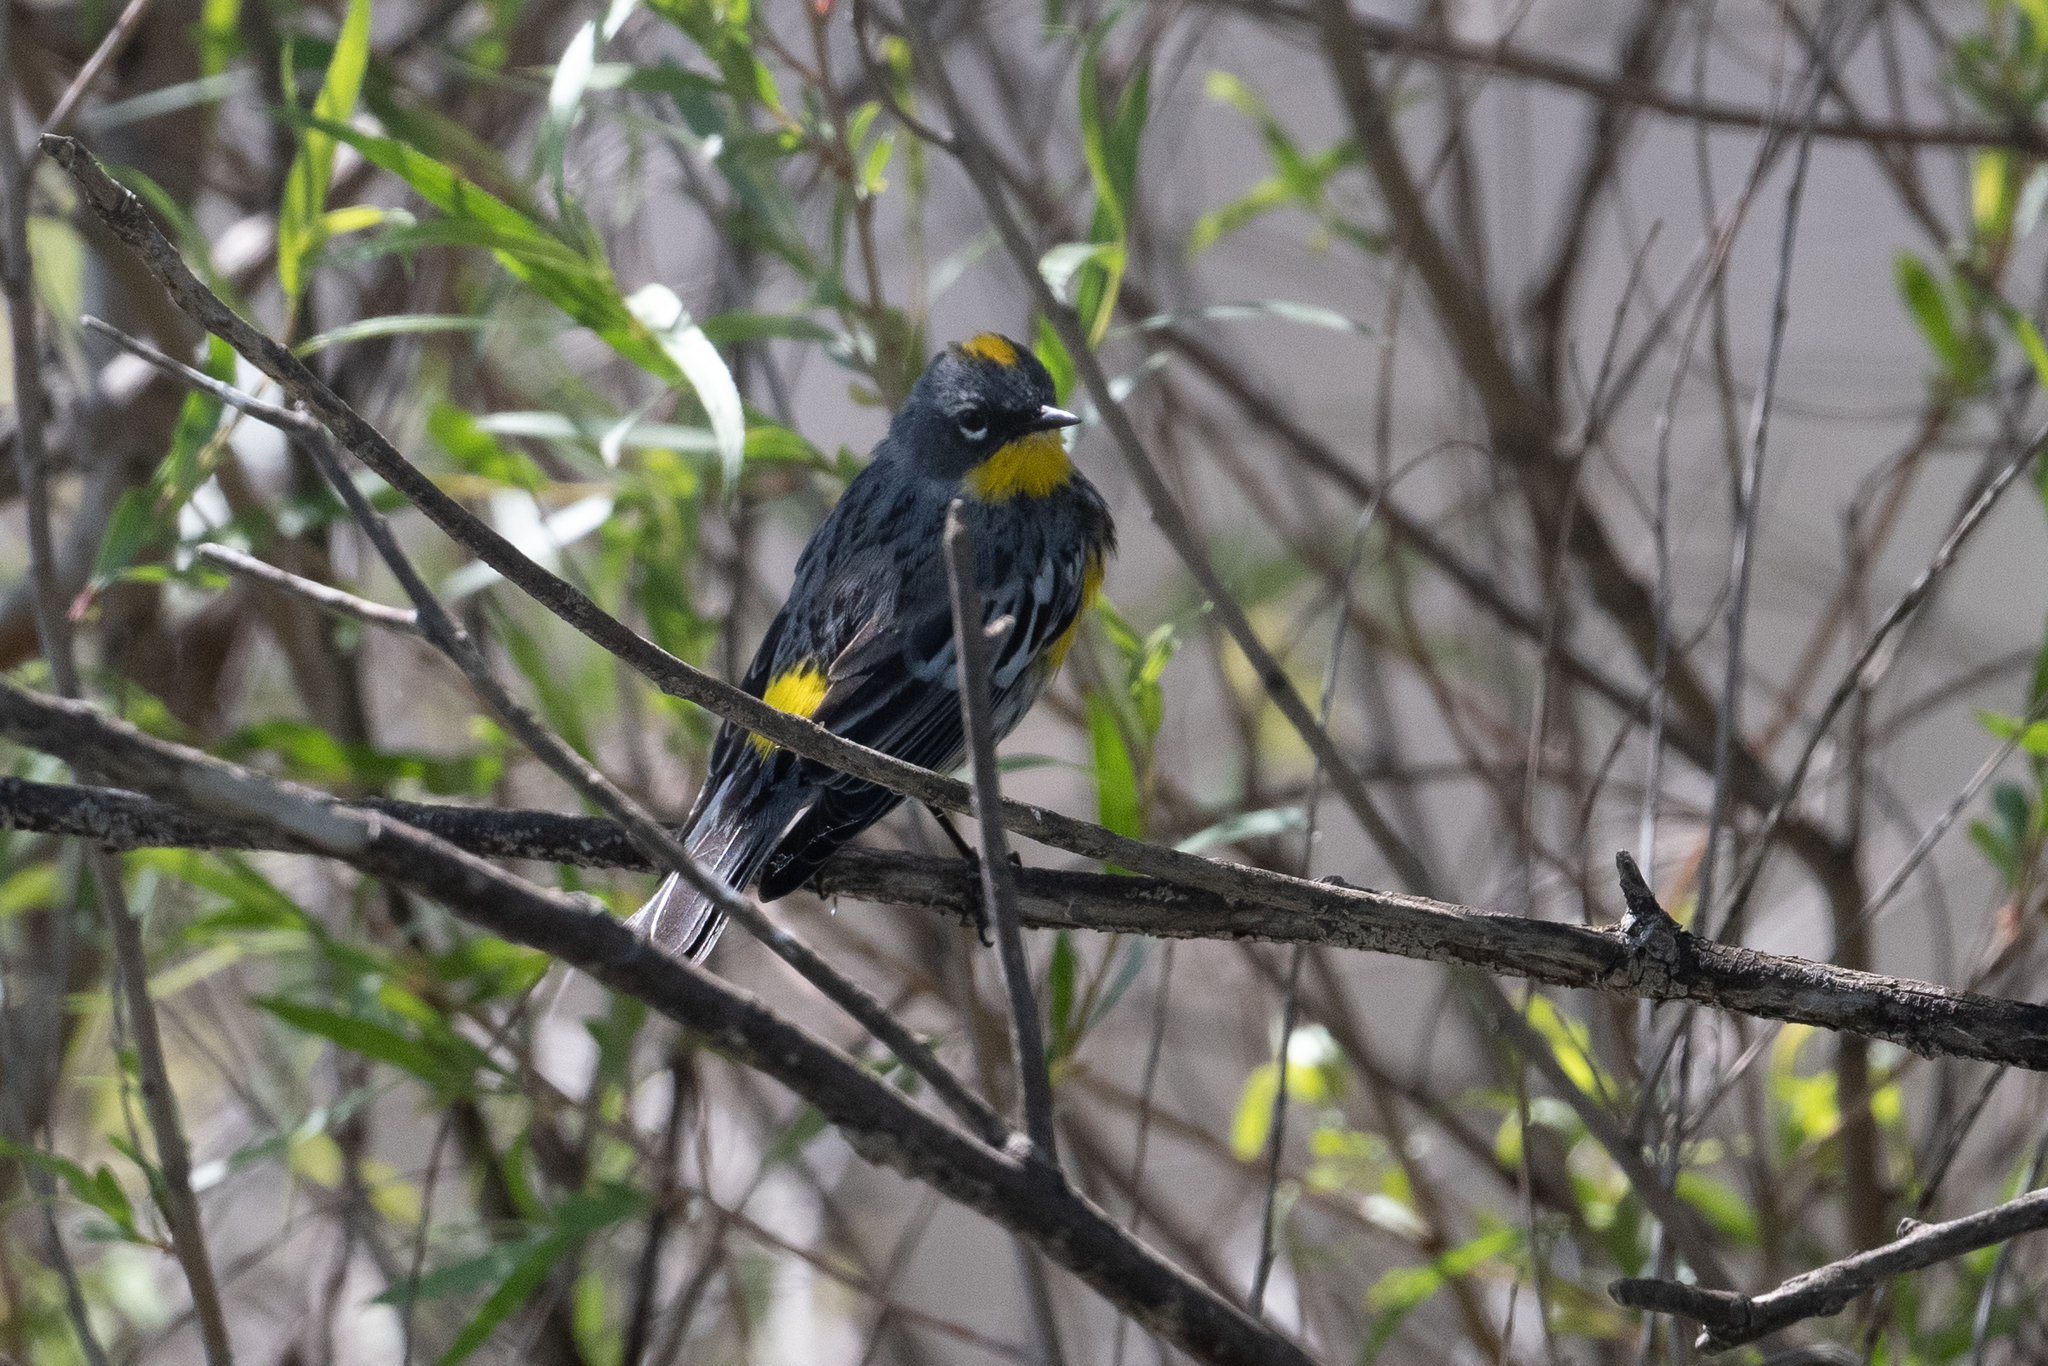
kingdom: Animalia
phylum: Chordata
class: Aves
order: Passeriformes
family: Parulidae
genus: Setophaga
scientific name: Setophaga coronata
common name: Myrtle warbler
